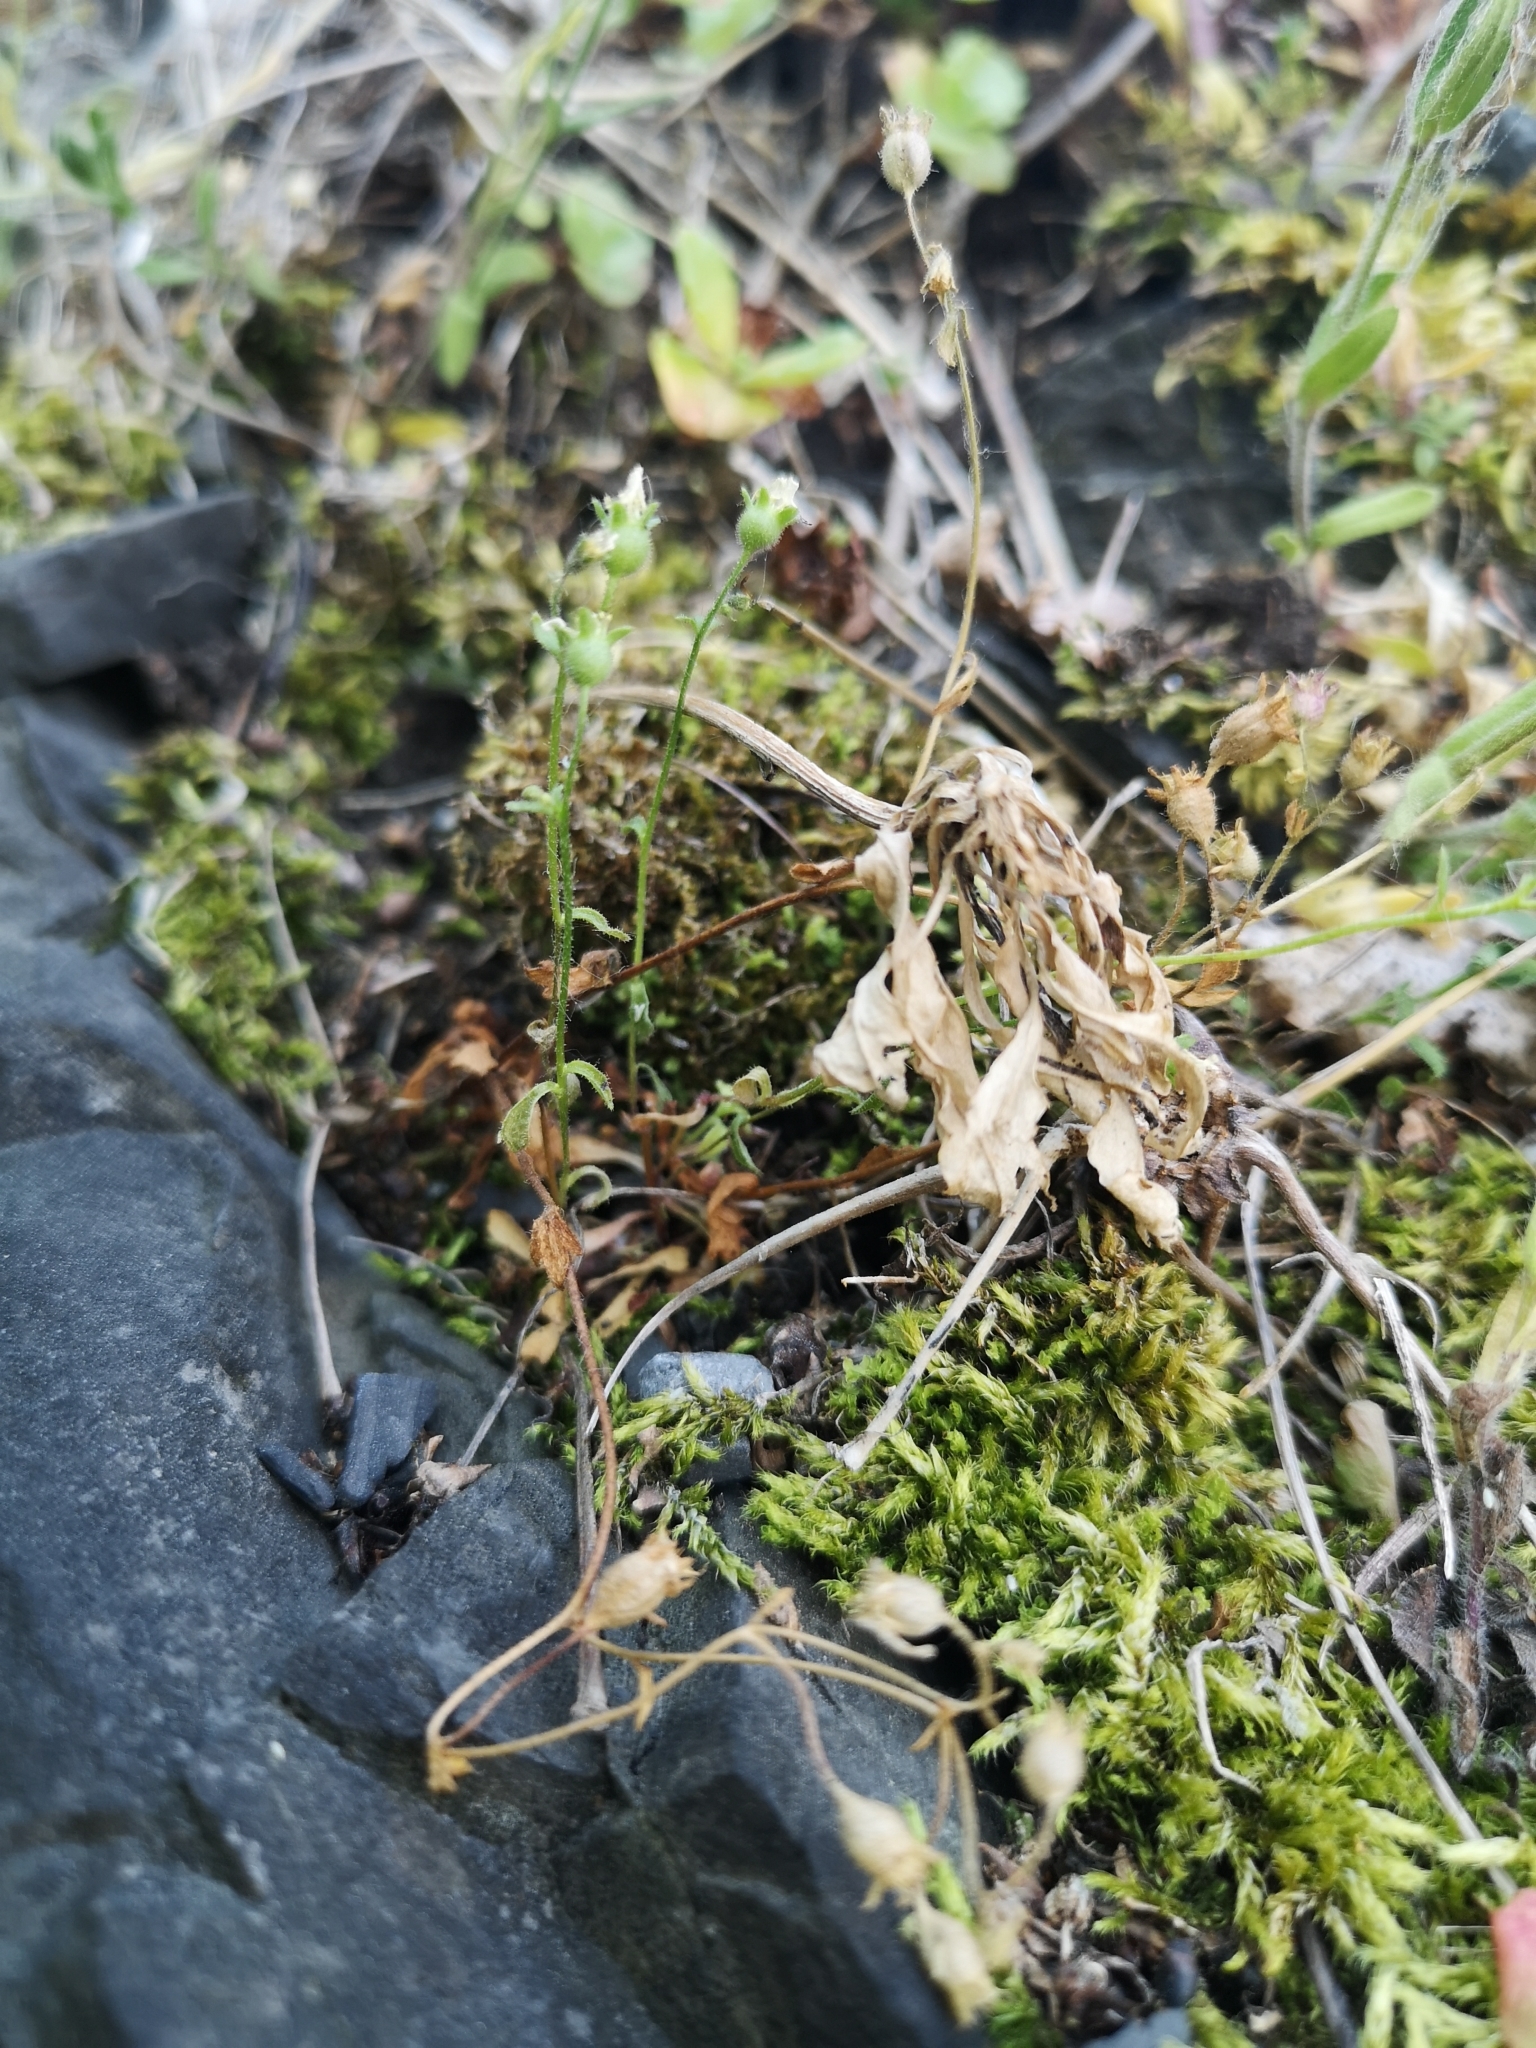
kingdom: Plantae
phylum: Tracheophyta
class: Magnoliopsida
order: Saxifragales
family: Saxifragaceae
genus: Saxifraga
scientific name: Saxifraga tridactylites
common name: Rue-leaved saxifrage
